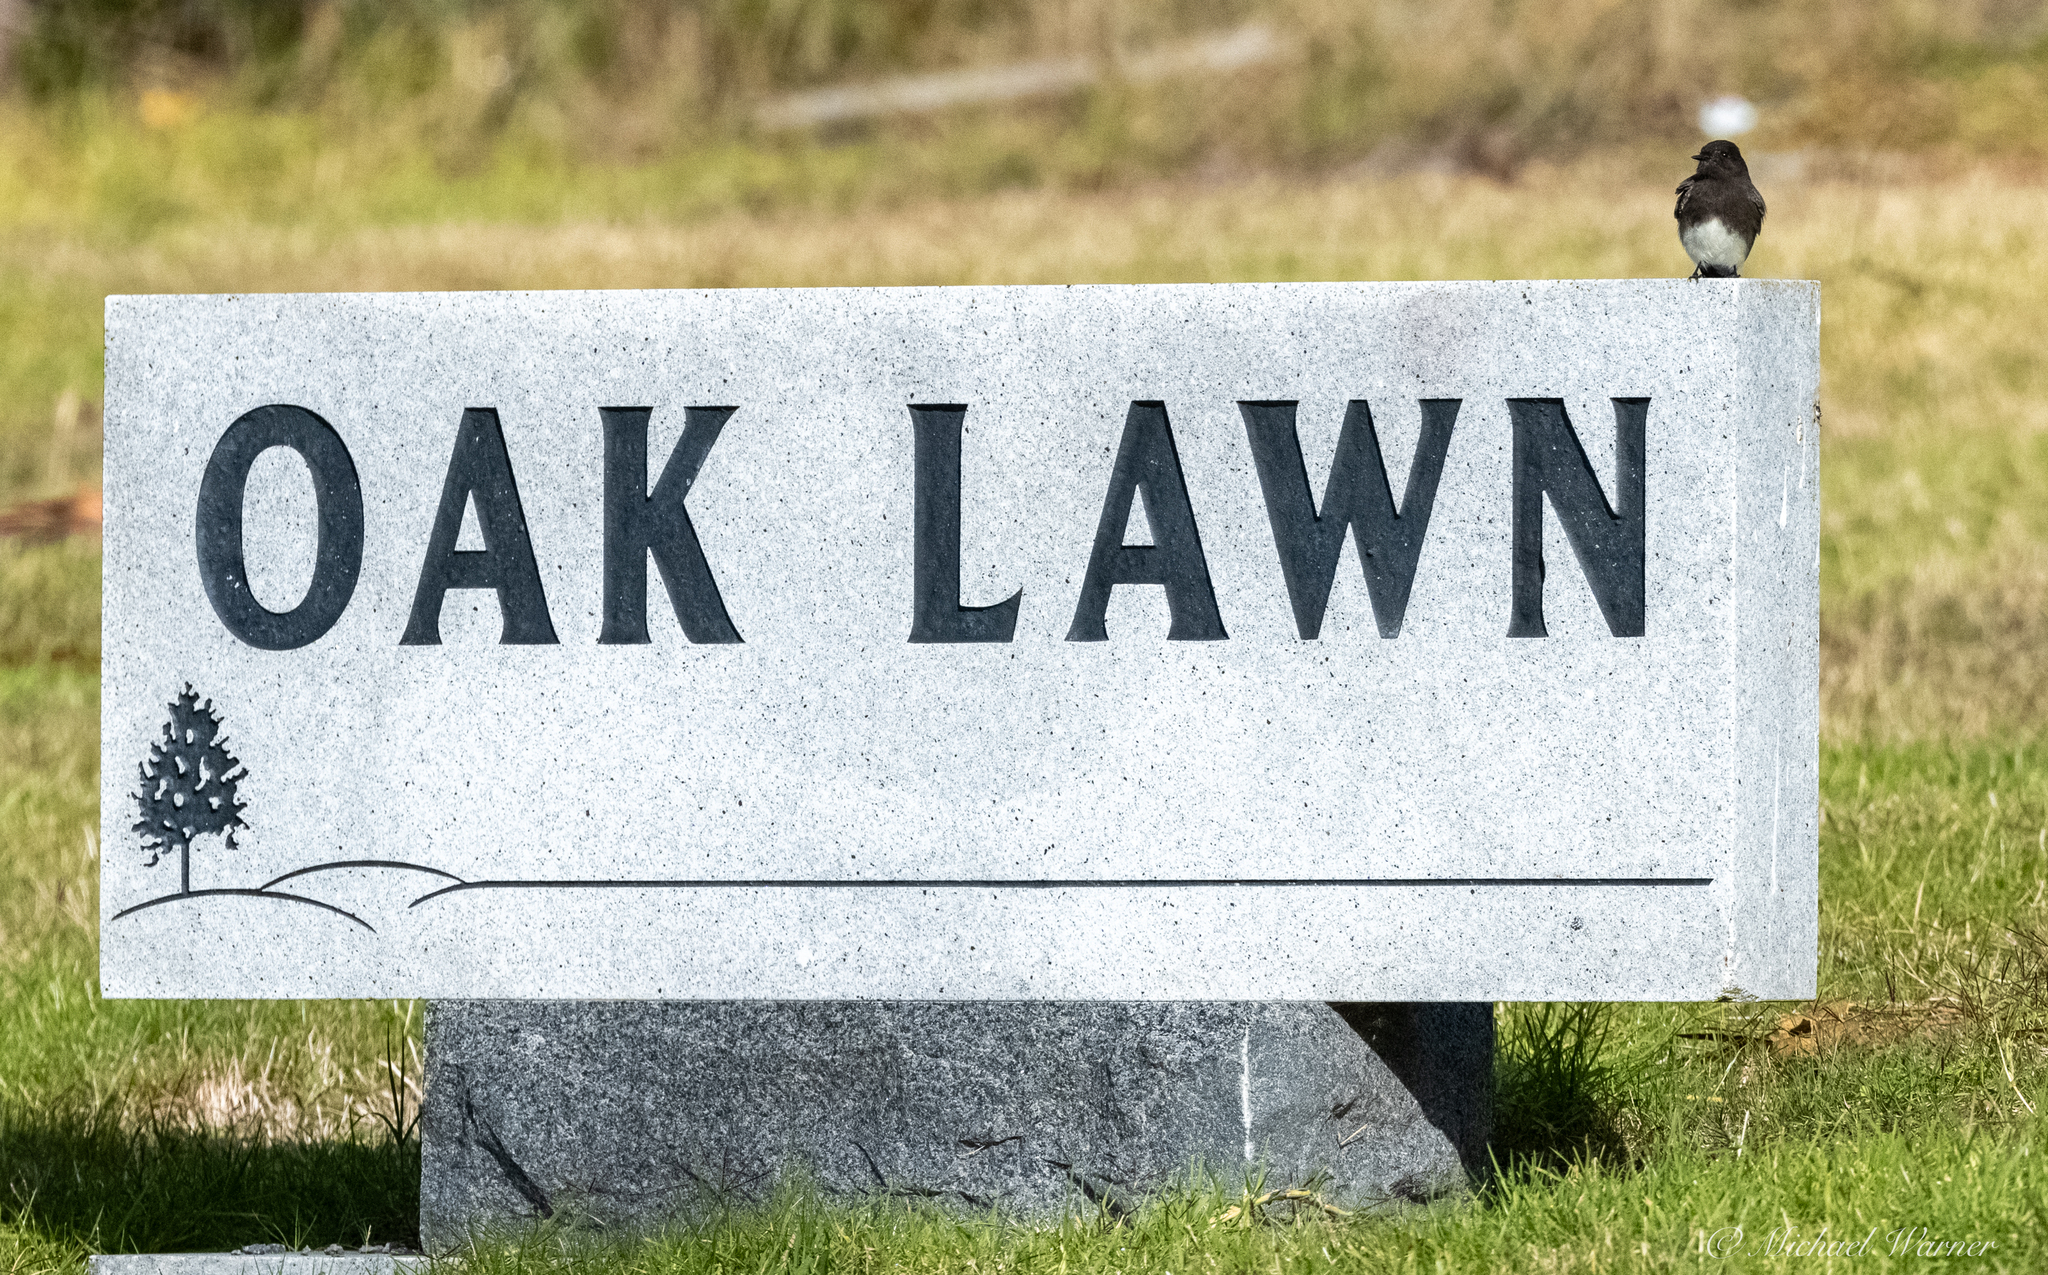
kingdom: Animalia
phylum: Chordata
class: Aves
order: Passeriformes
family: Tyrannidae
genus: Sayornis
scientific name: Sayornis nigricans
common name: Black phoebe
